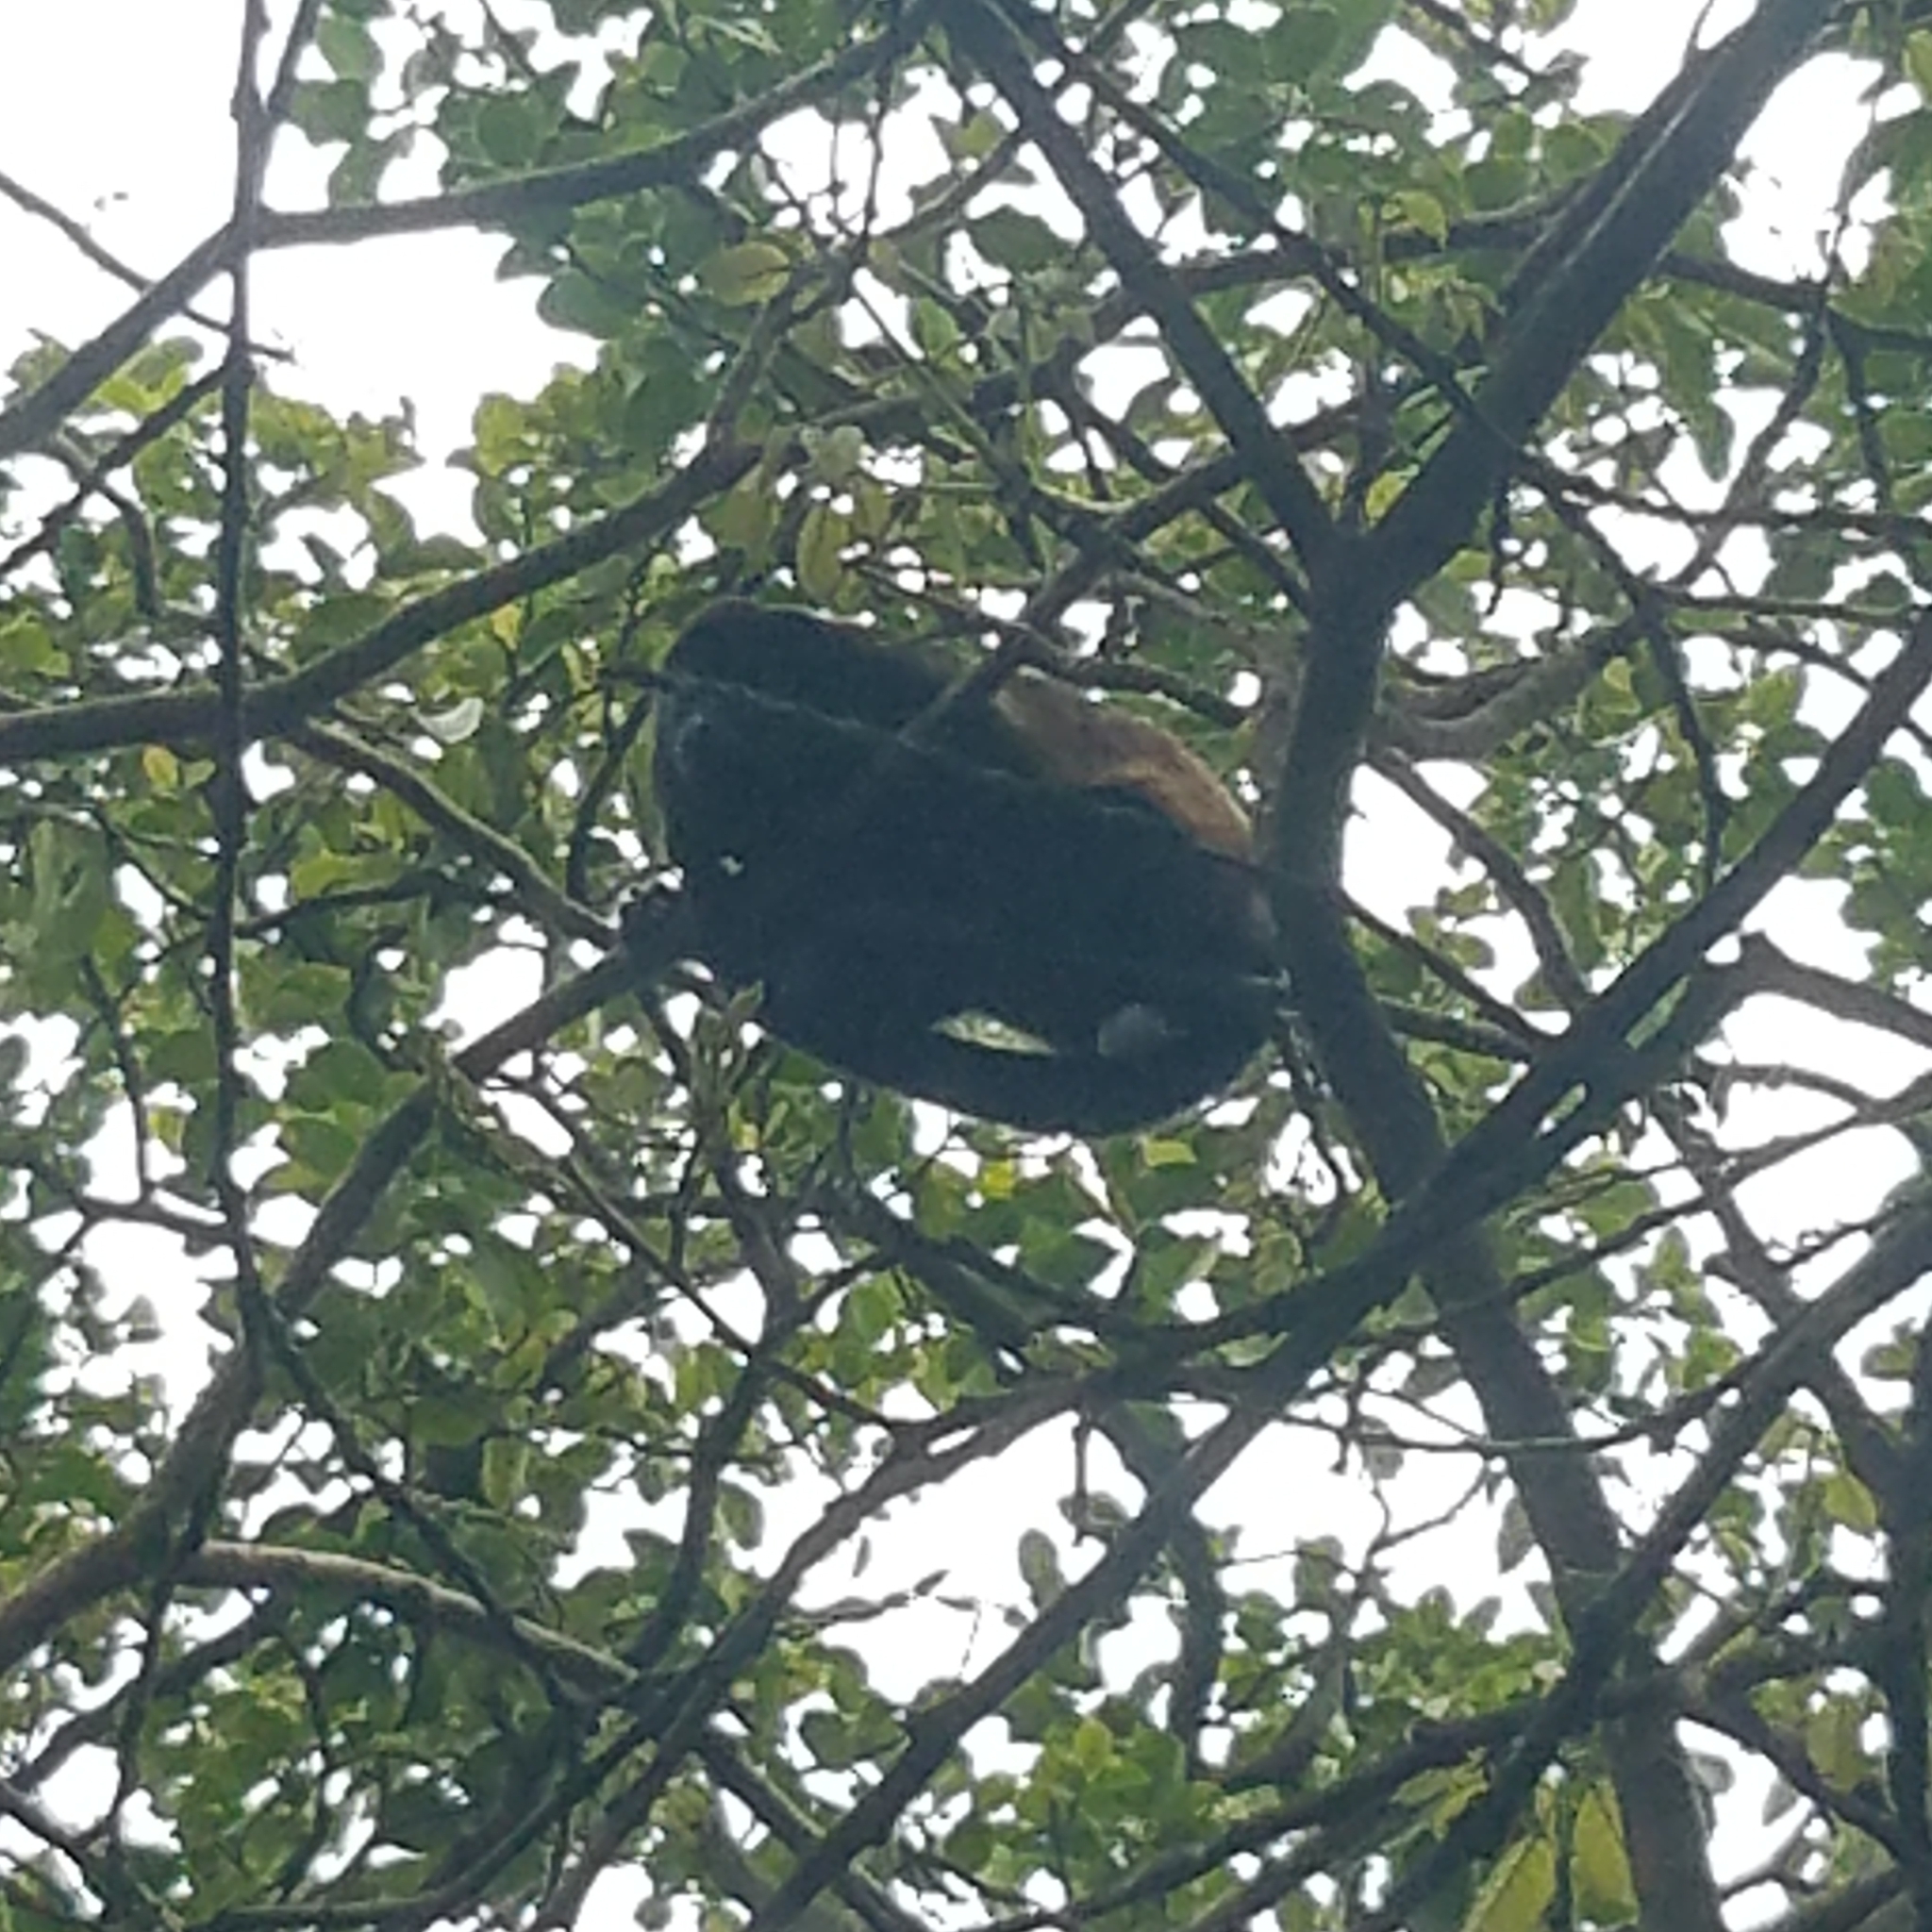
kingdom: Animalia
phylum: Chordata
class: Mammalia
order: Primates
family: Atelidae
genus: Alouatta
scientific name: Alouatta palliata
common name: Mantled howler
